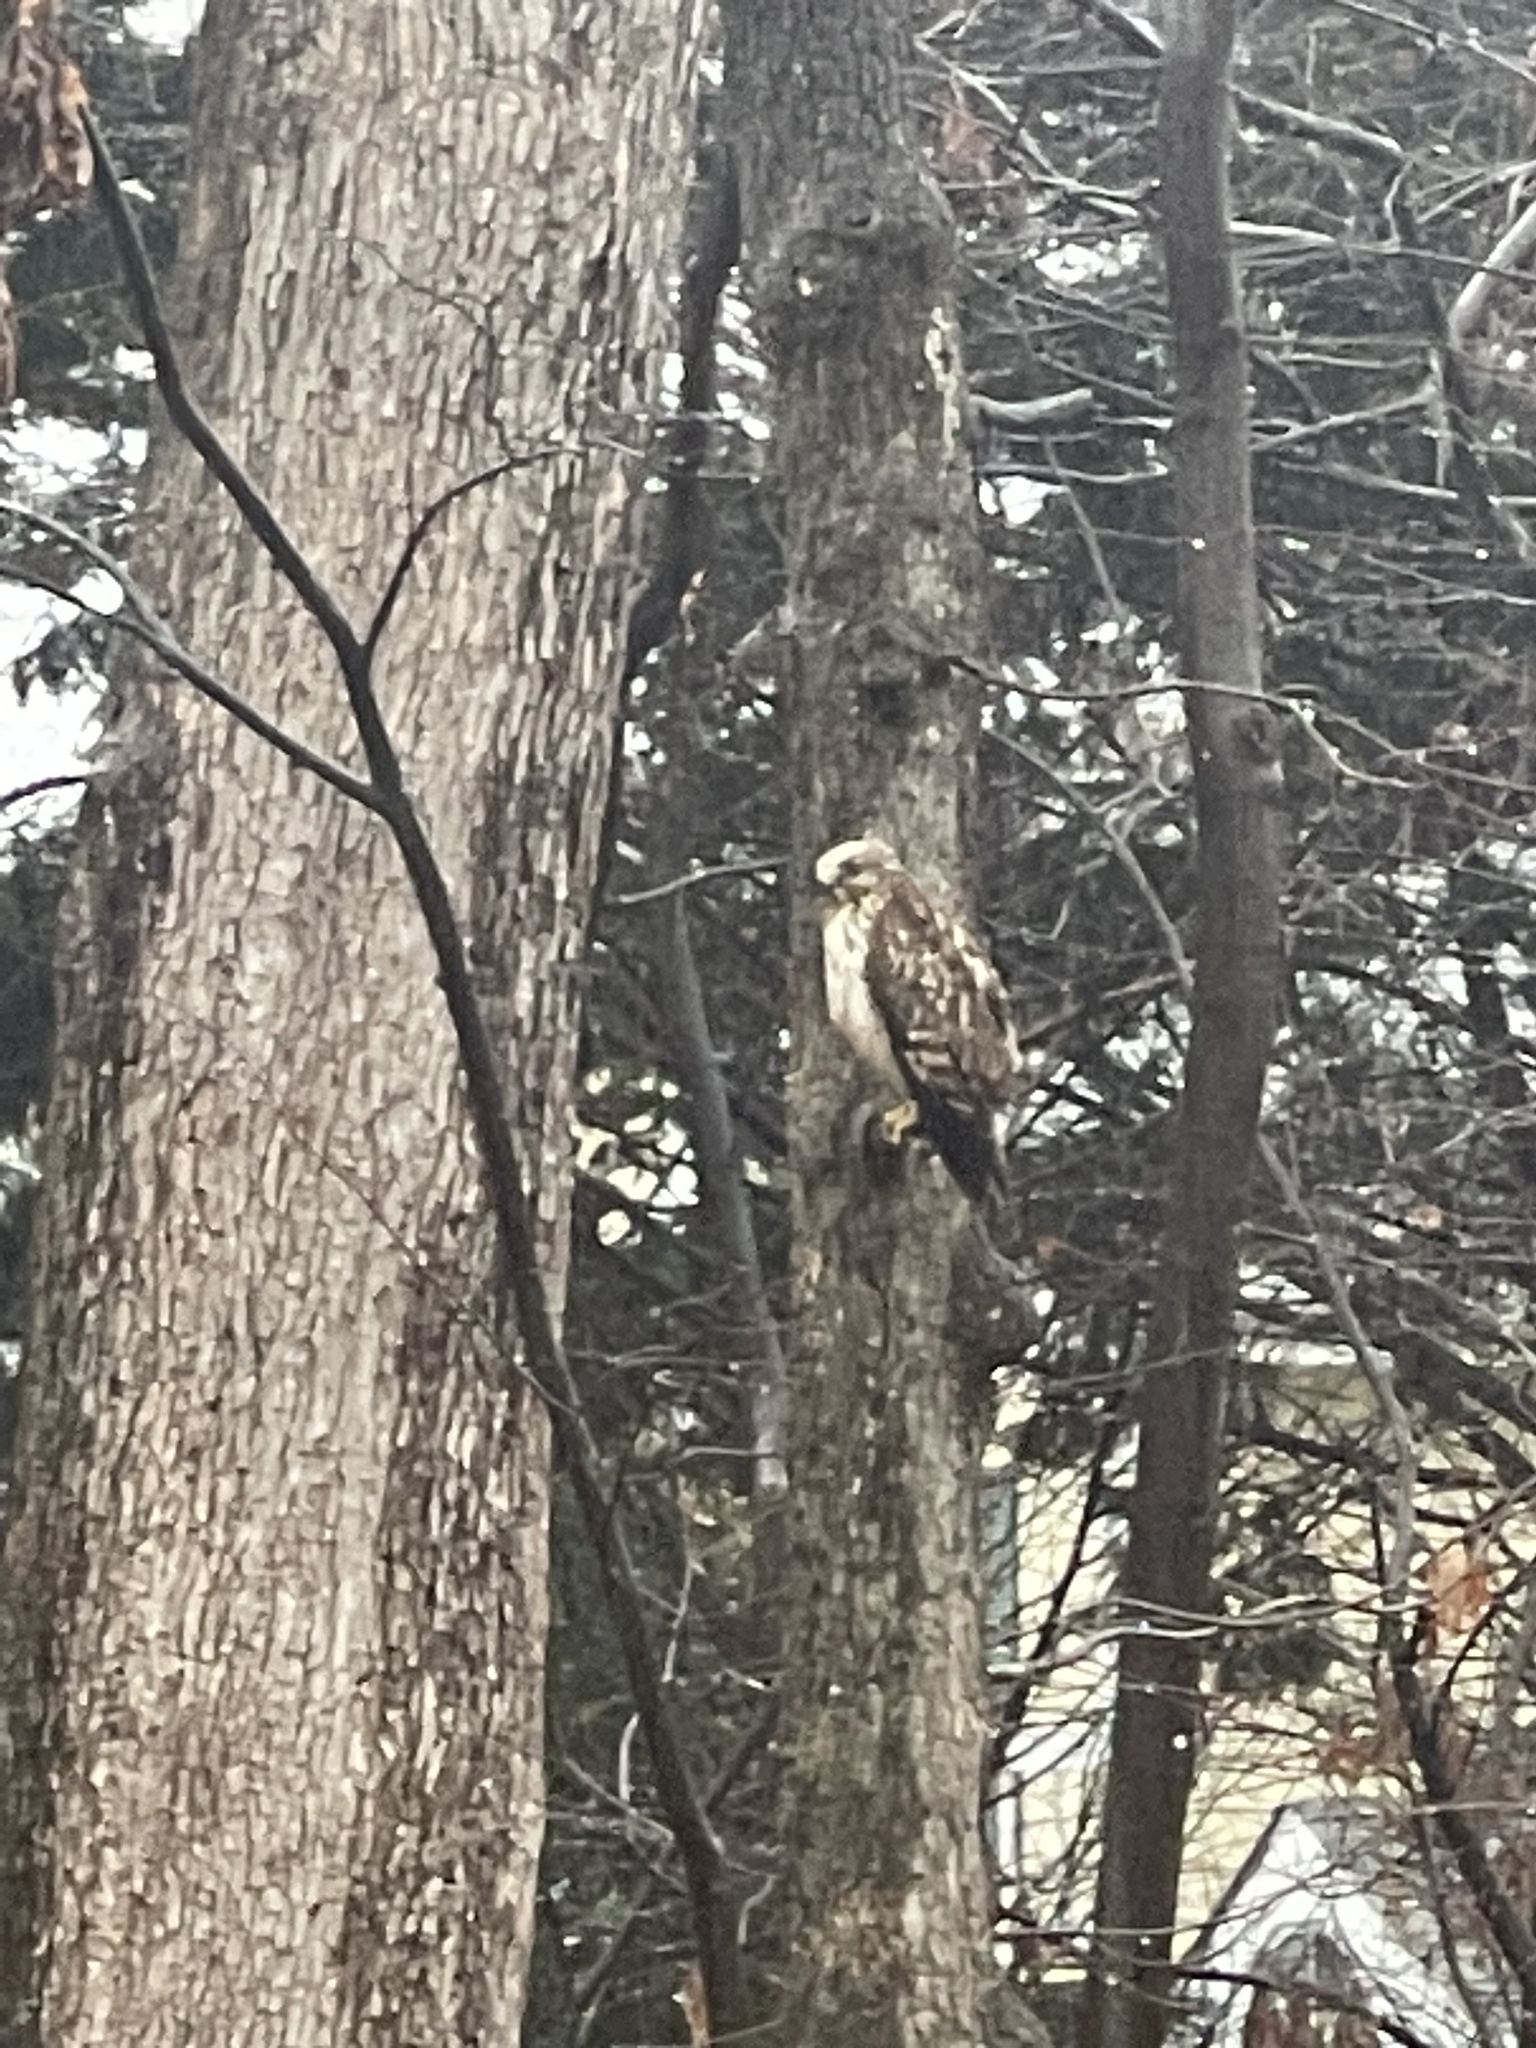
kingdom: Animalia
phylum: Chordata
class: Aves
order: Accipitriformes
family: Accipitridae
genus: Buteo
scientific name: Buteo lineatus
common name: Red-shouldered hawk
